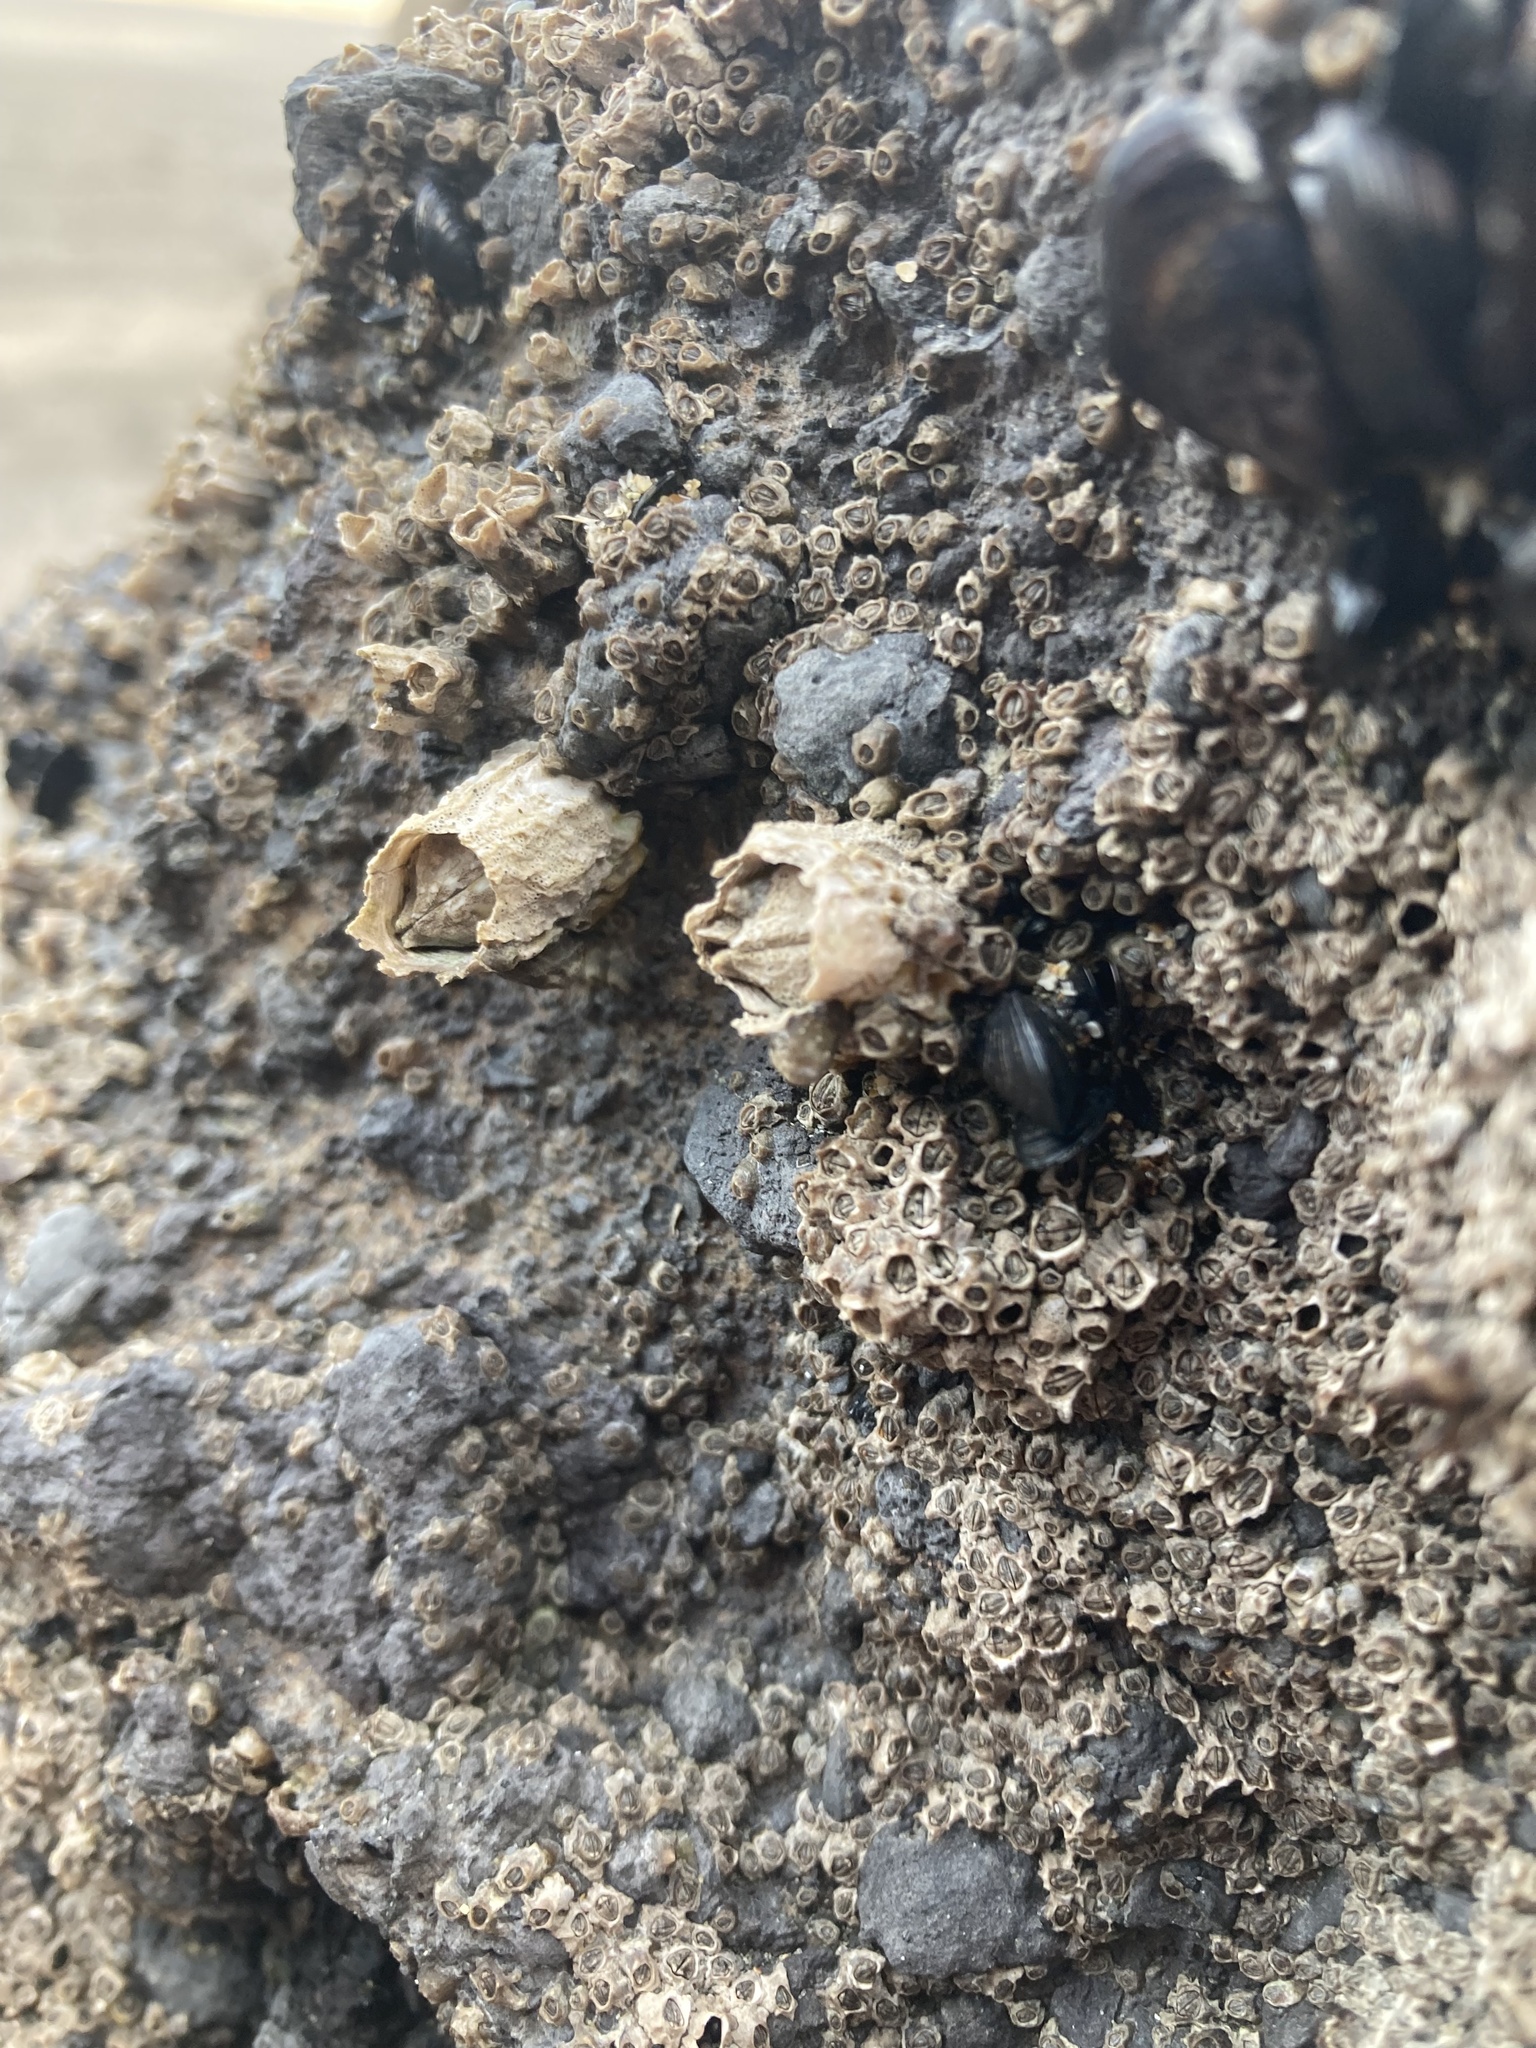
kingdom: Animalia
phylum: Arthropoda
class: Maxillopoda
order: Sessilia
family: Tetraclitidae
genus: Epopella
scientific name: Epopella plicata
